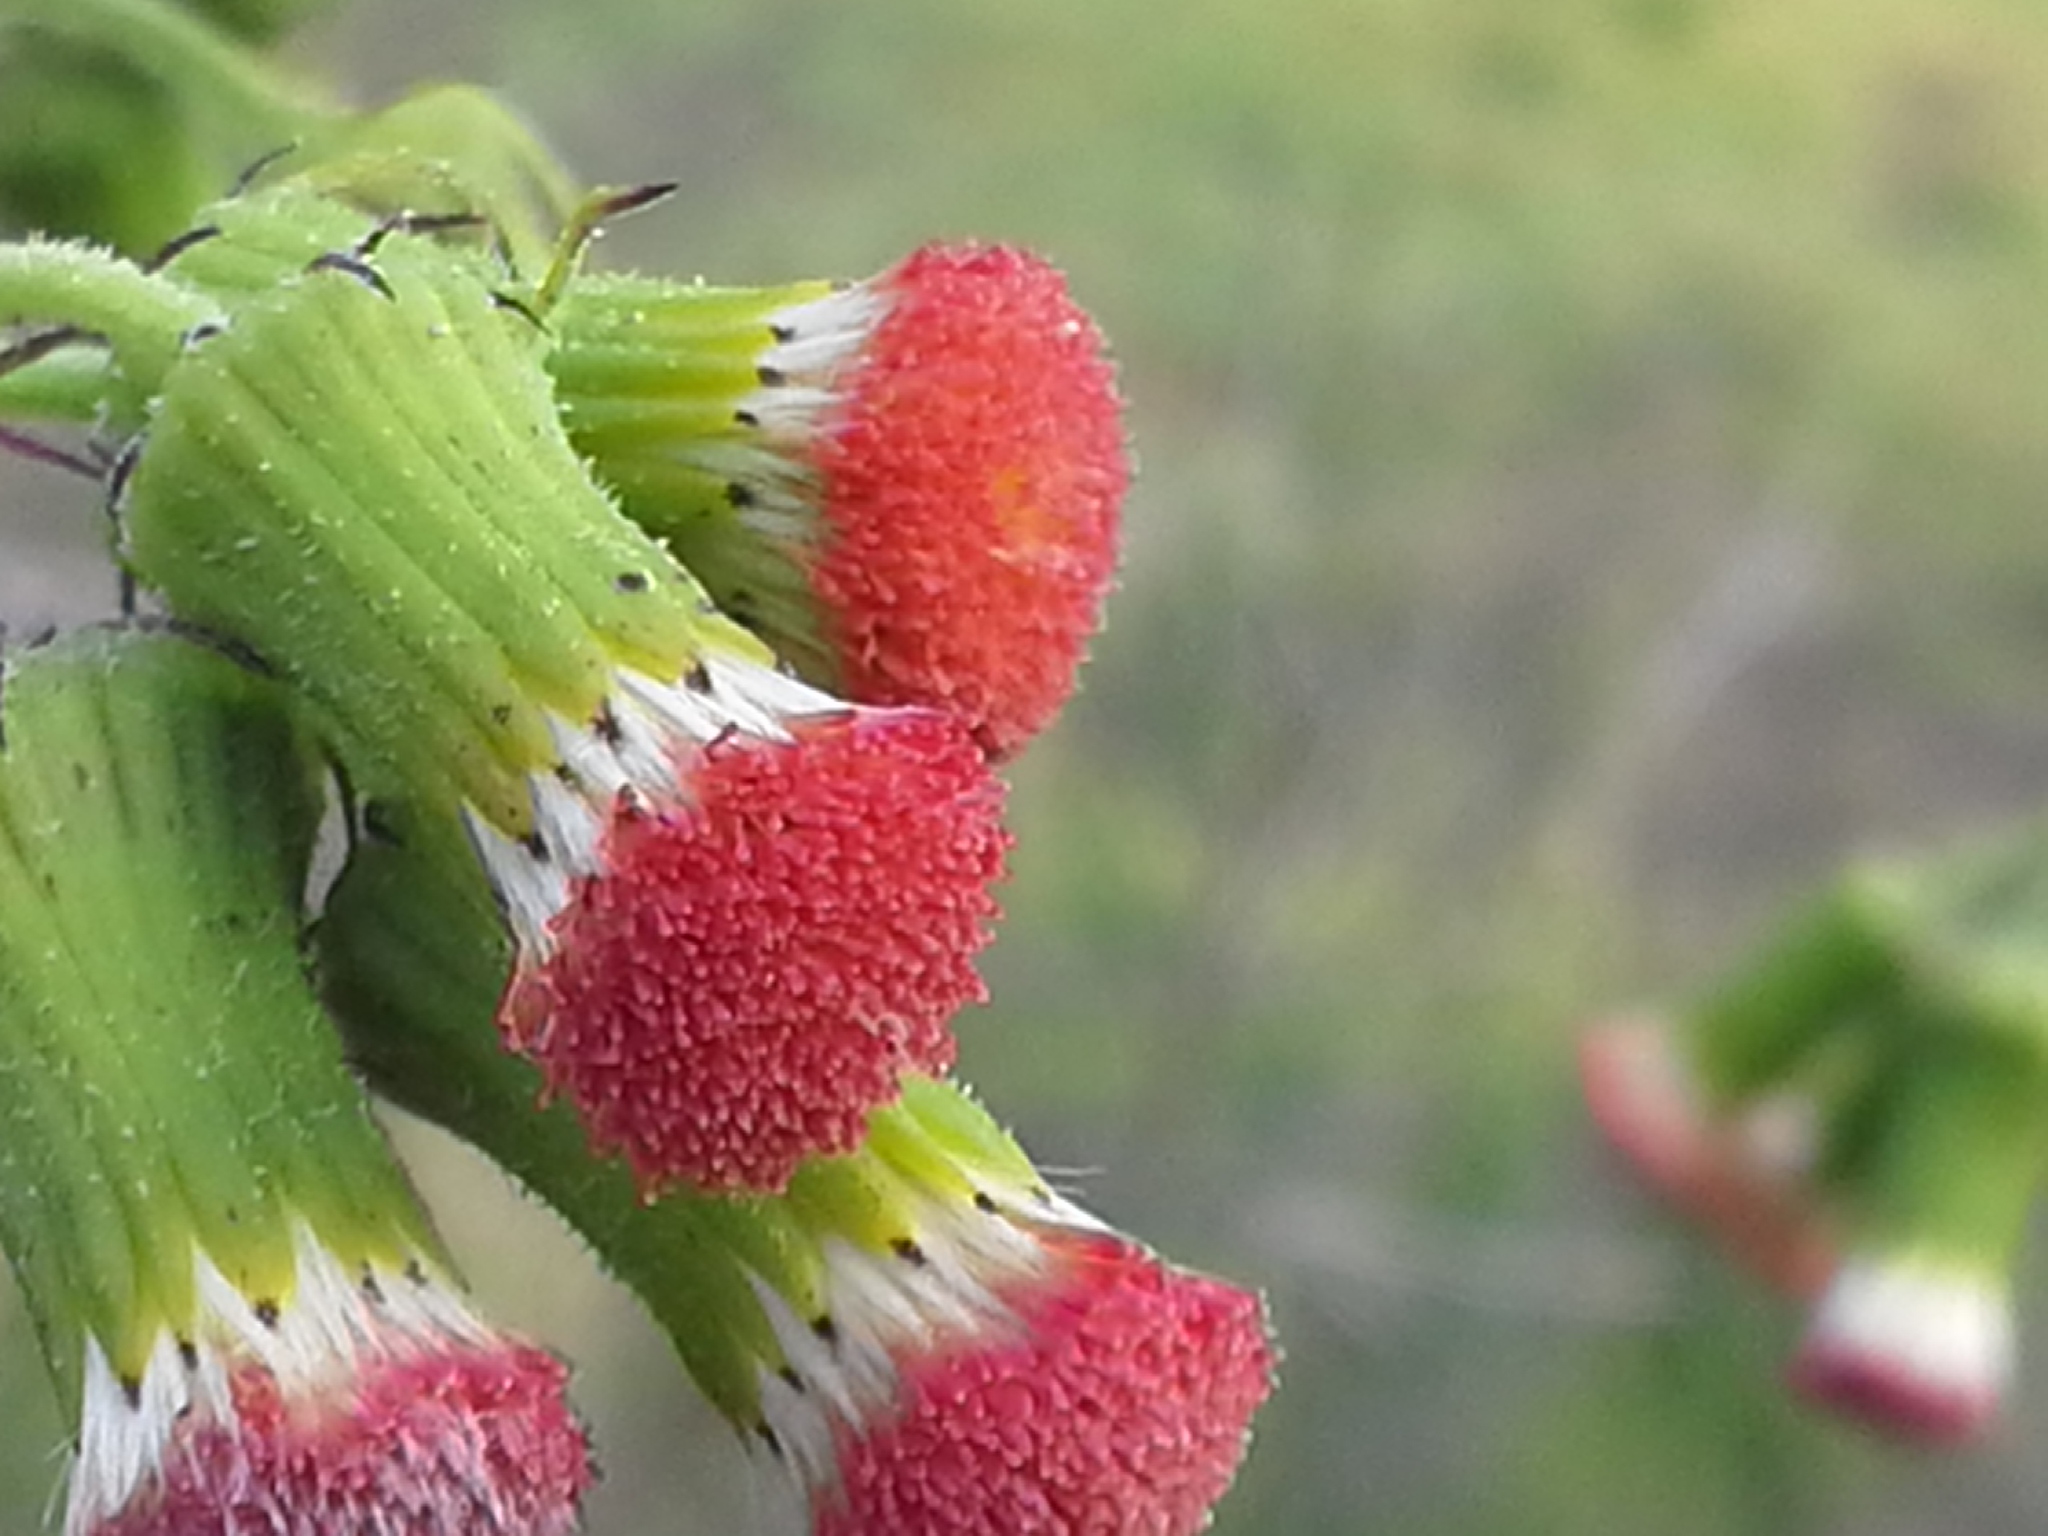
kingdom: Plantae
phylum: Tracheophyta
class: Magnoliopsida
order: Asterales
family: Asteraceae
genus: Crassocephalum
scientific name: Crassocephalum crepidioides
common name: Redflower ragleaf
